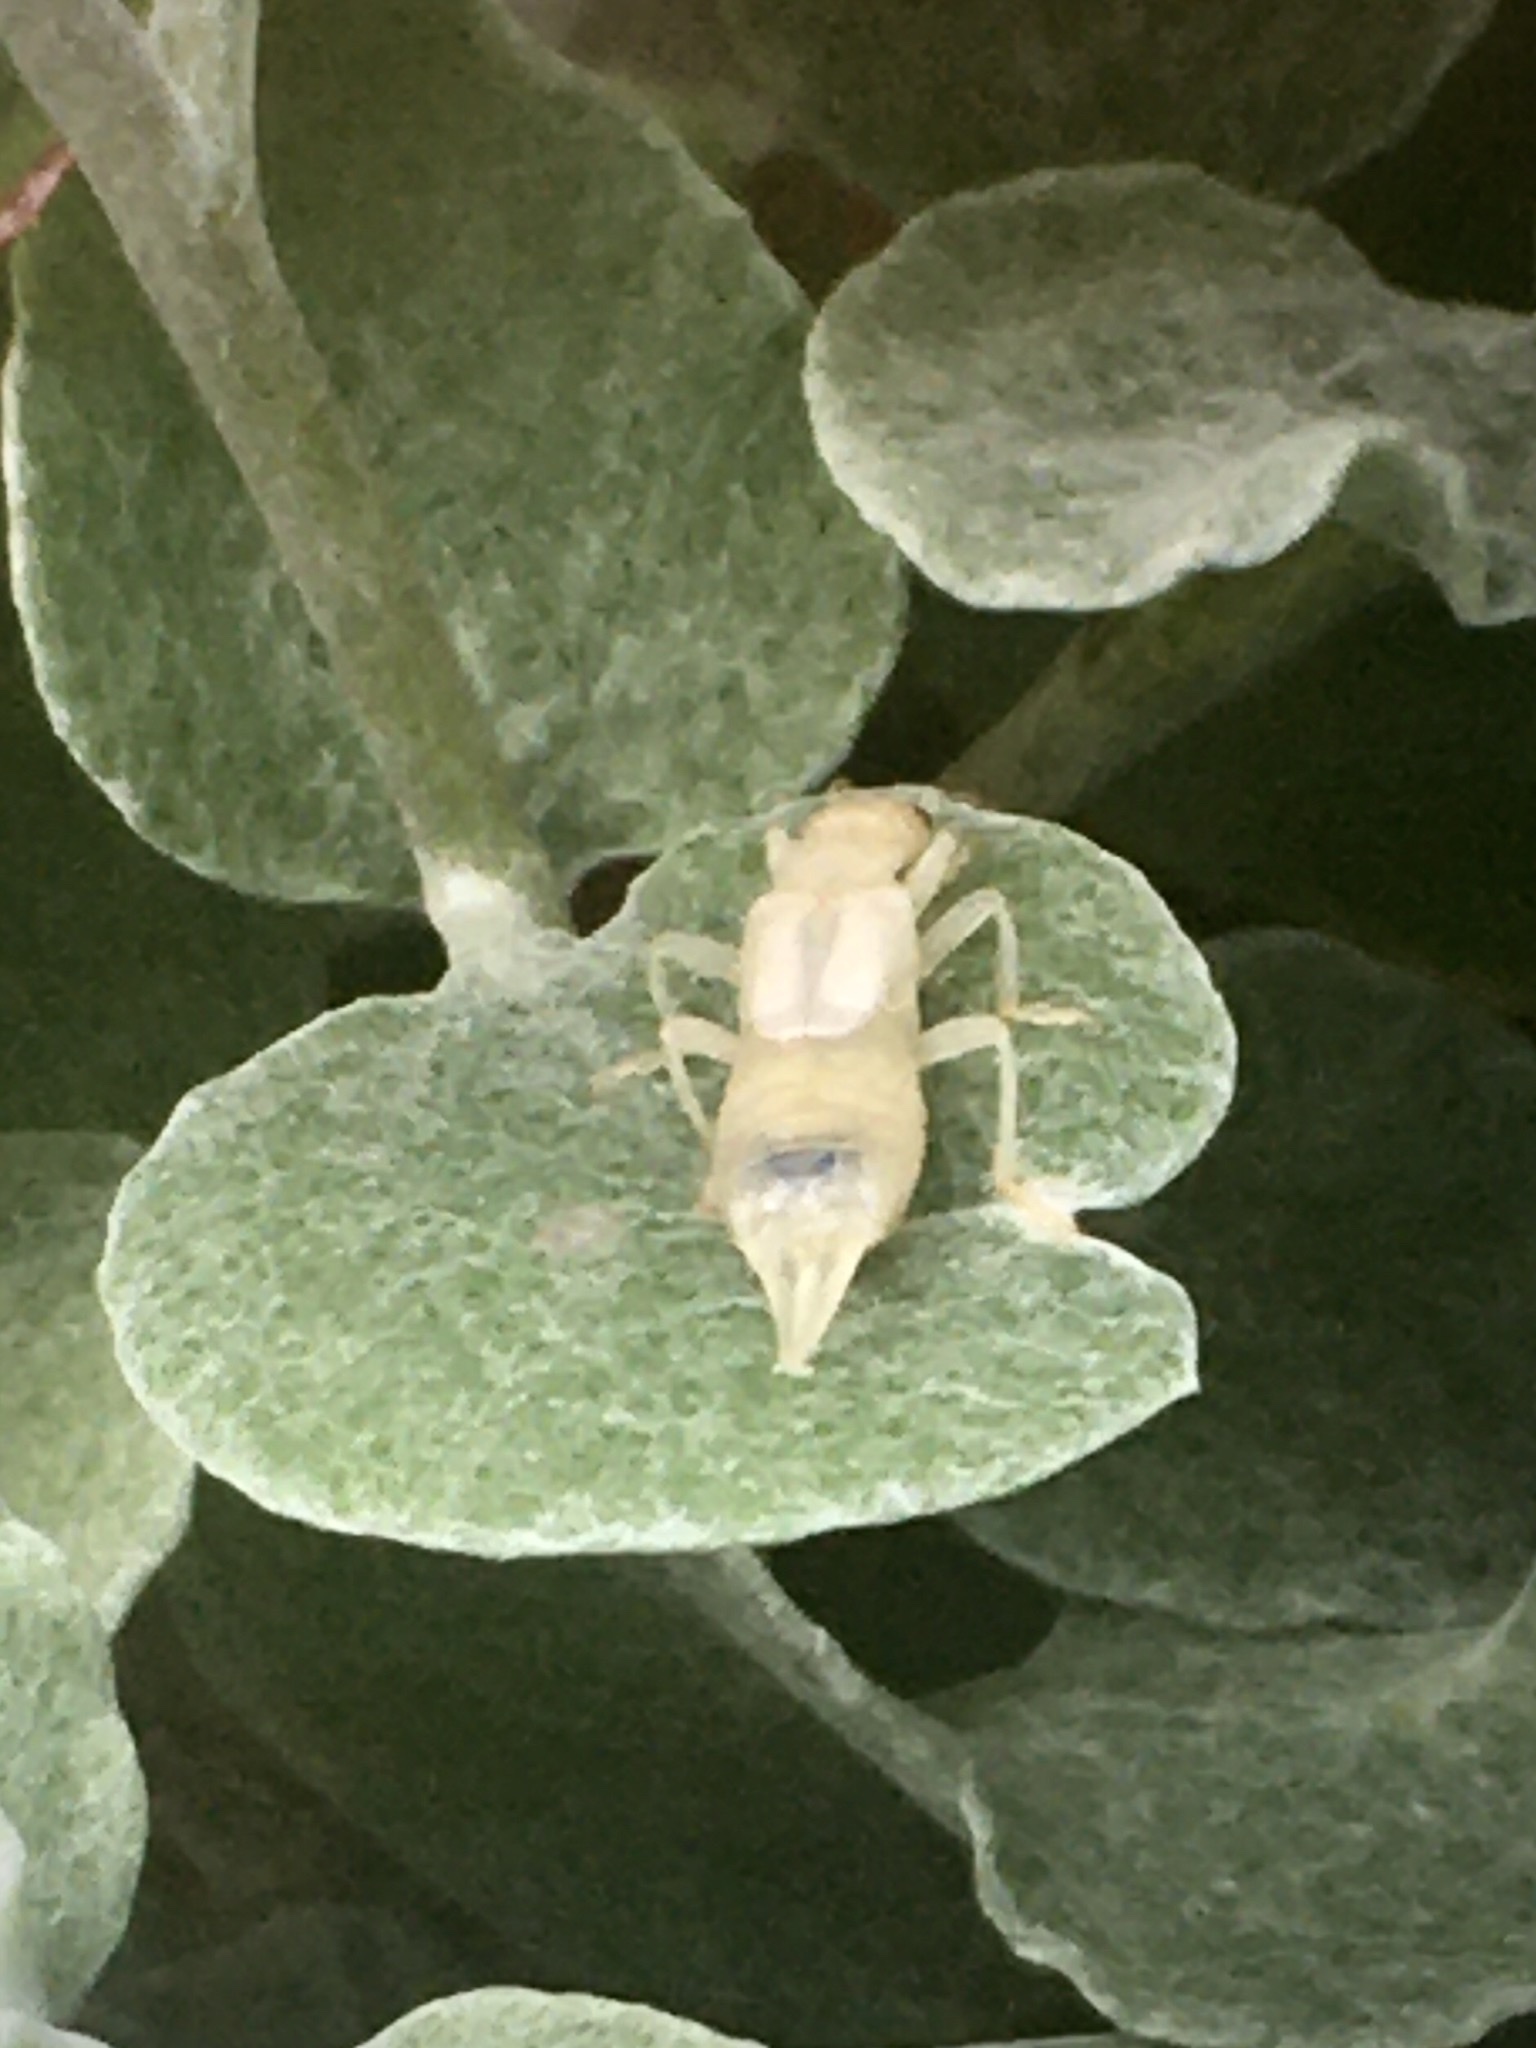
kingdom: Animalia
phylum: Arthropoda
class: Insecta
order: Dermaptera
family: Forficulidae
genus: Forficula
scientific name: Forficula
